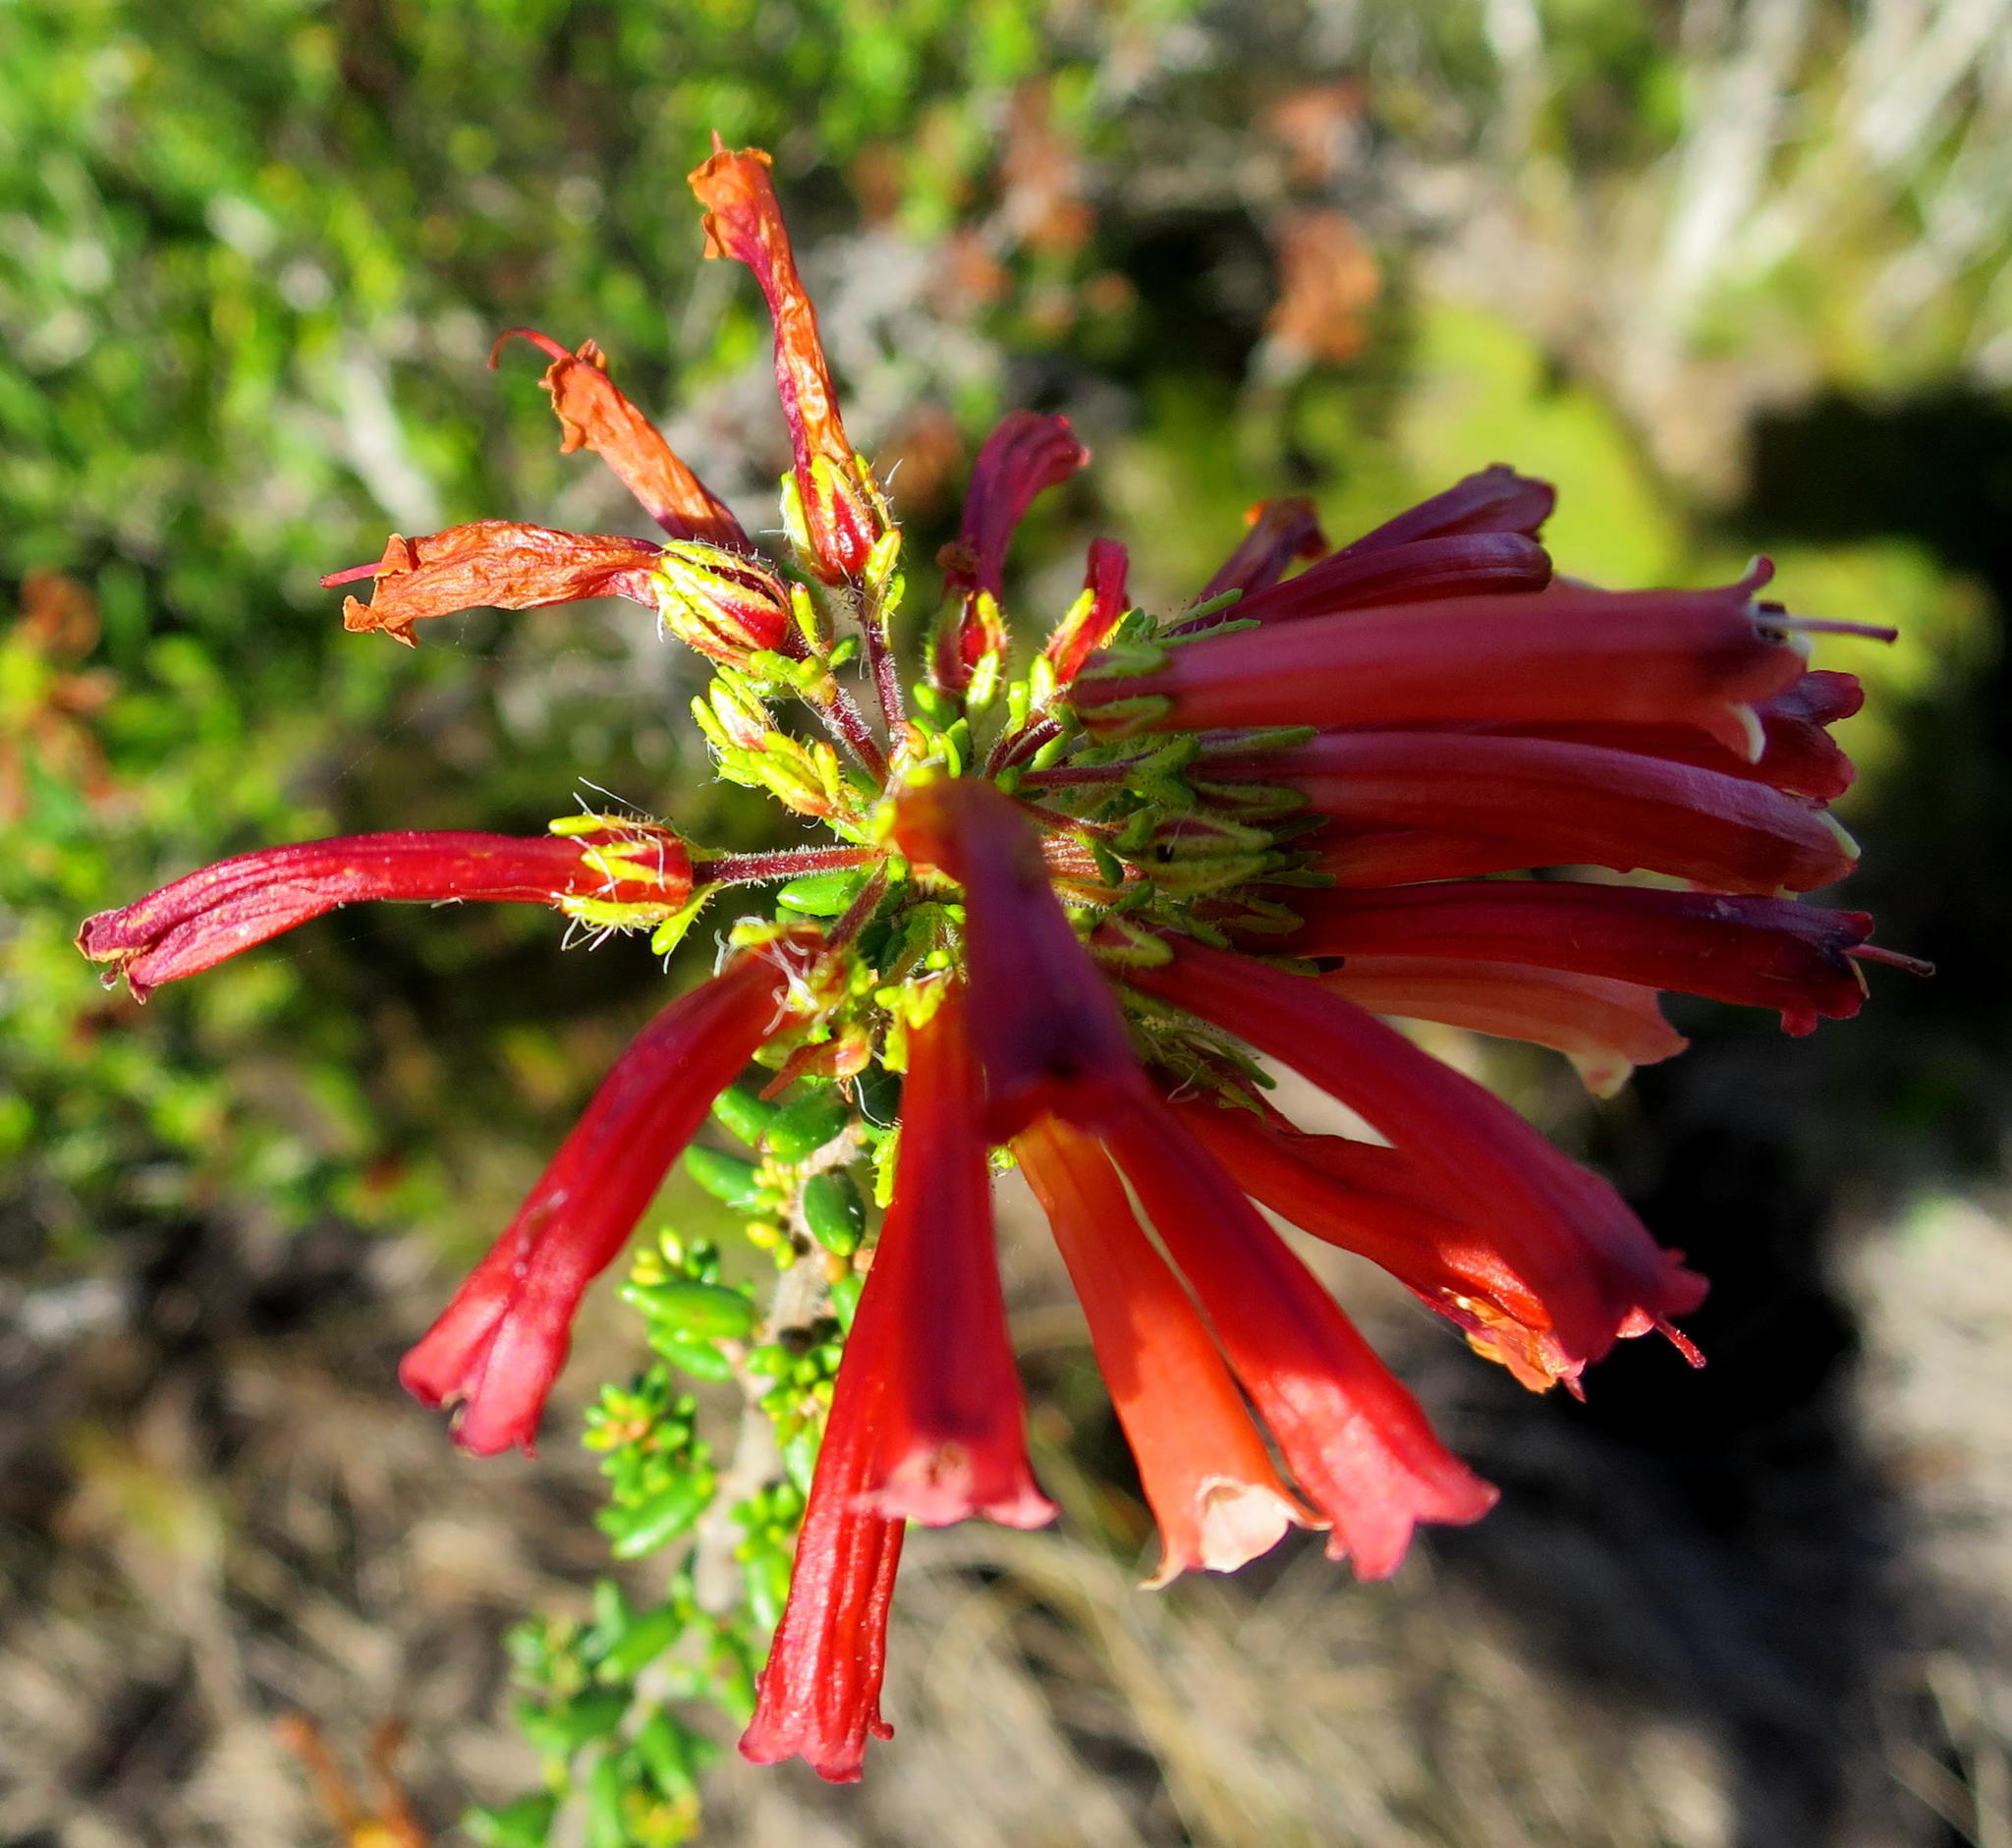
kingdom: Plantae
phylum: Tracheophyta
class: Magnoliopsida
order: Ericales
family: Ericaceae
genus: Erica
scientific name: Erica glandulosa
